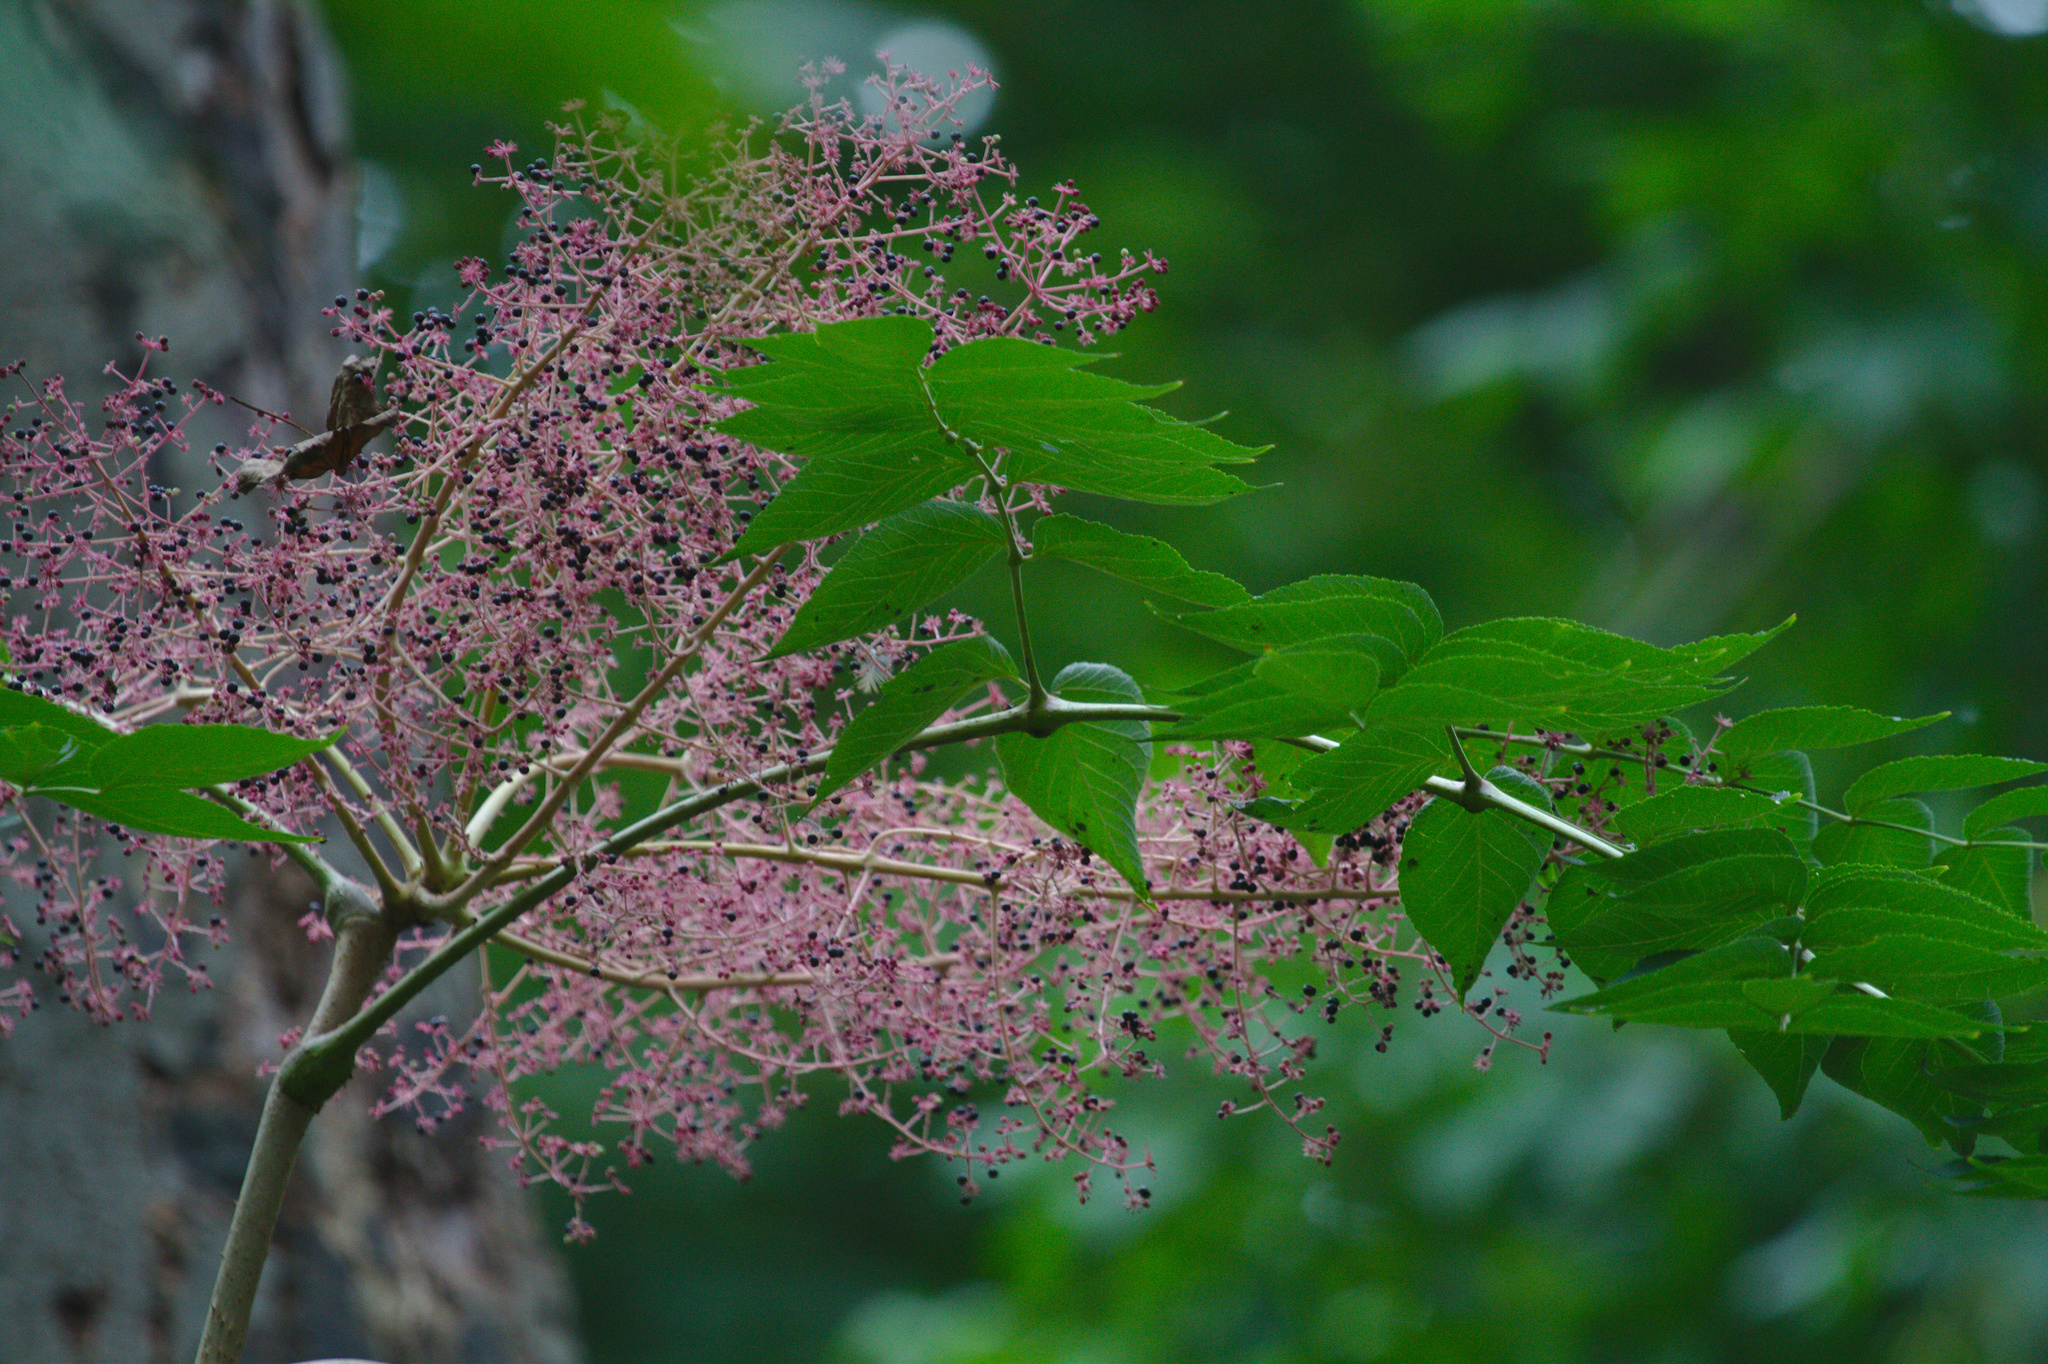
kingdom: Plantae
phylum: Tracheophyta
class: Magnoliopsida
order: Apiales
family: Araliaceae
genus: Aralia
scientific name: Aralia elata
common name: Japanese angelica-tree
